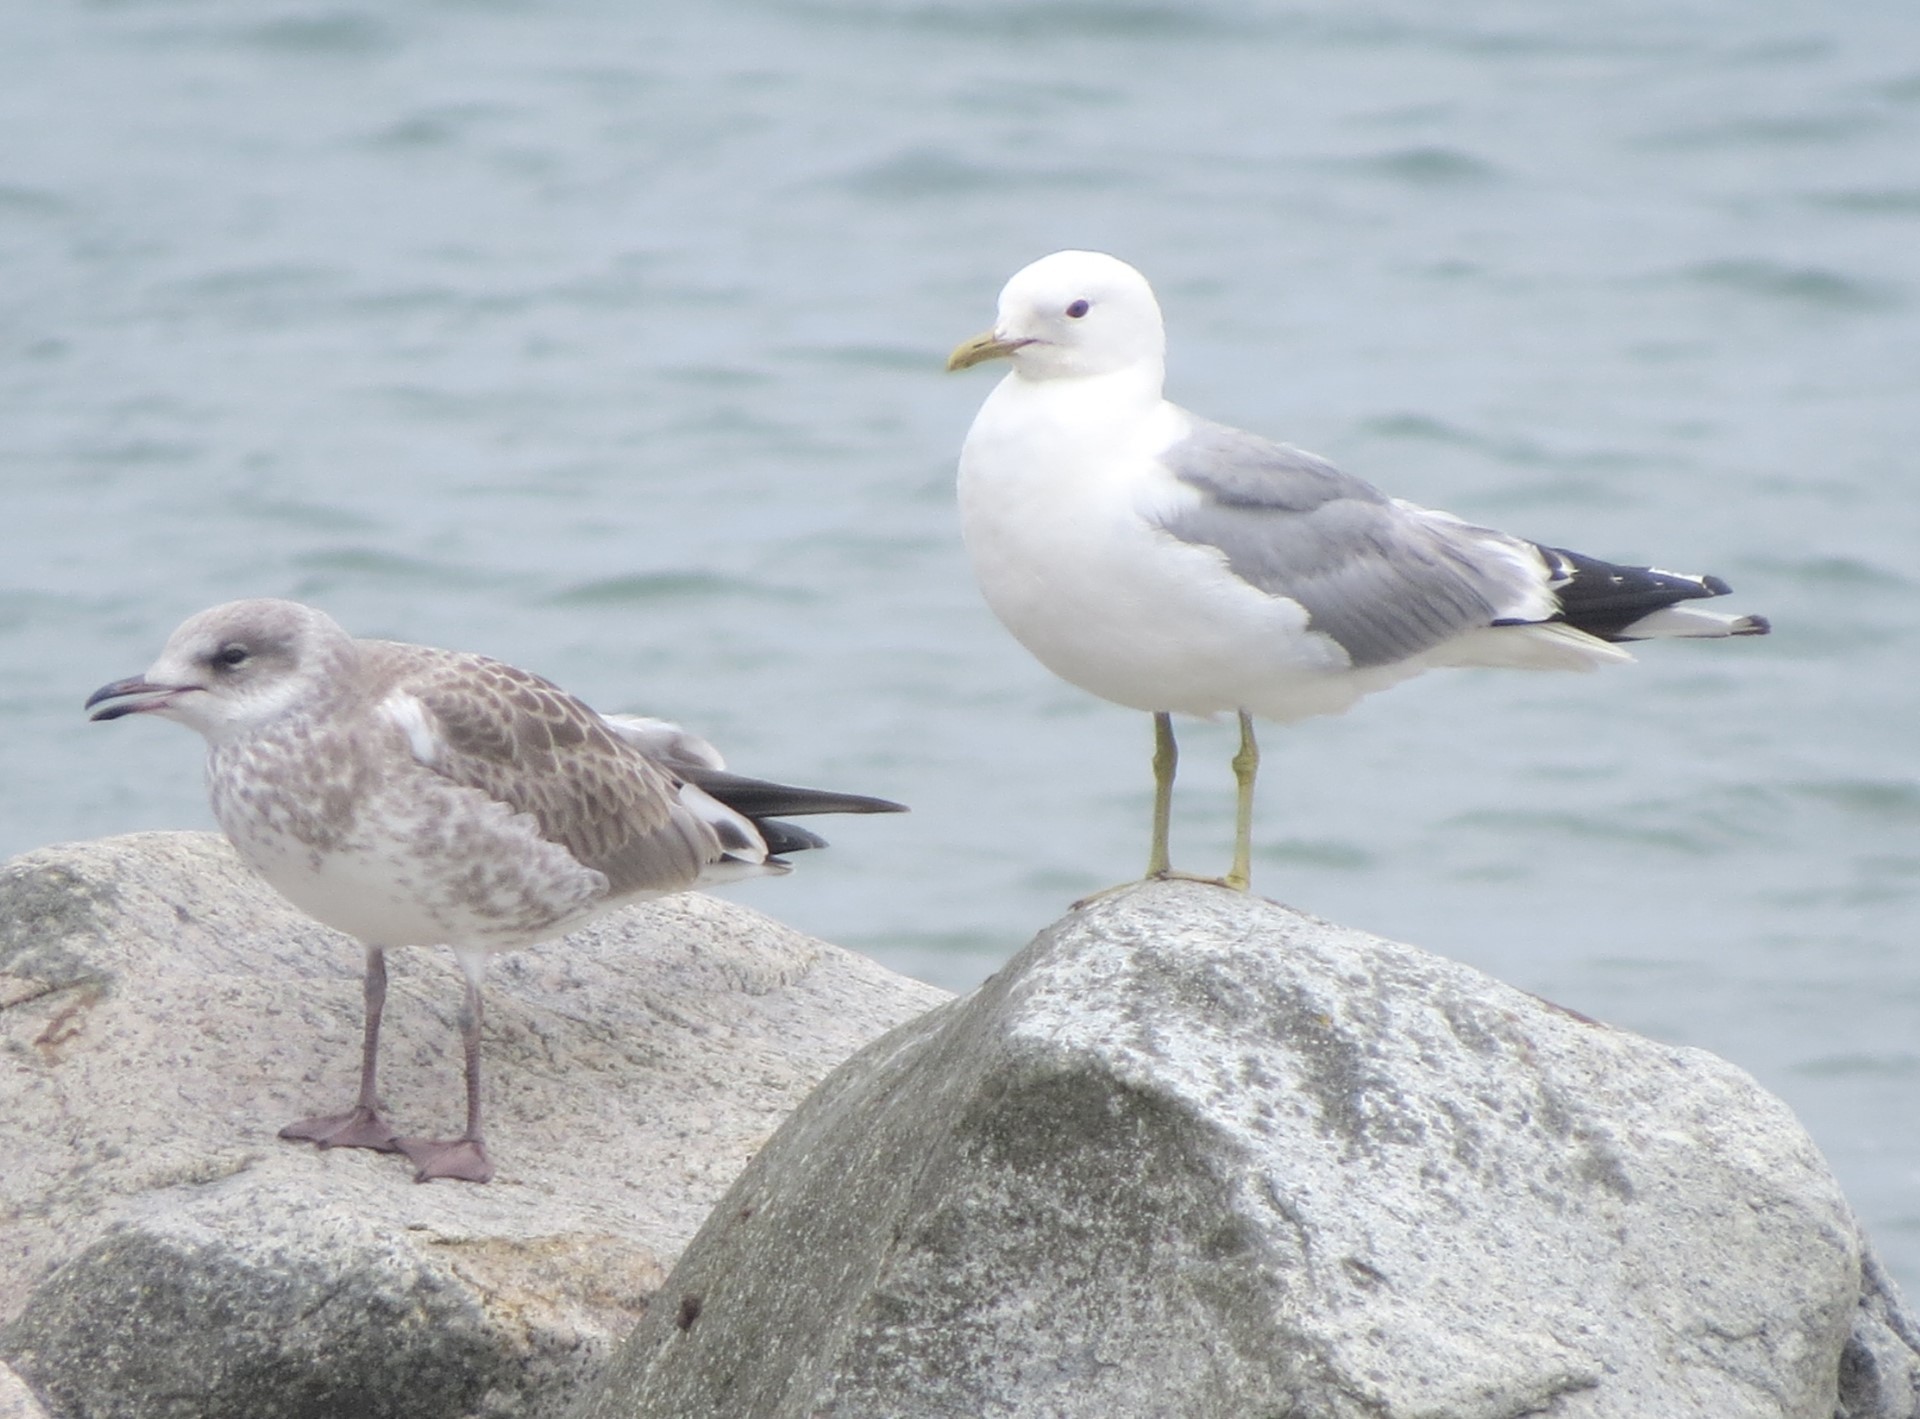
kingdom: Animalia
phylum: Chordata
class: Aves
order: Charadriiformes
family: Laridae
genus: Larus
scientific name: Larus canus
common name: Mew gull
